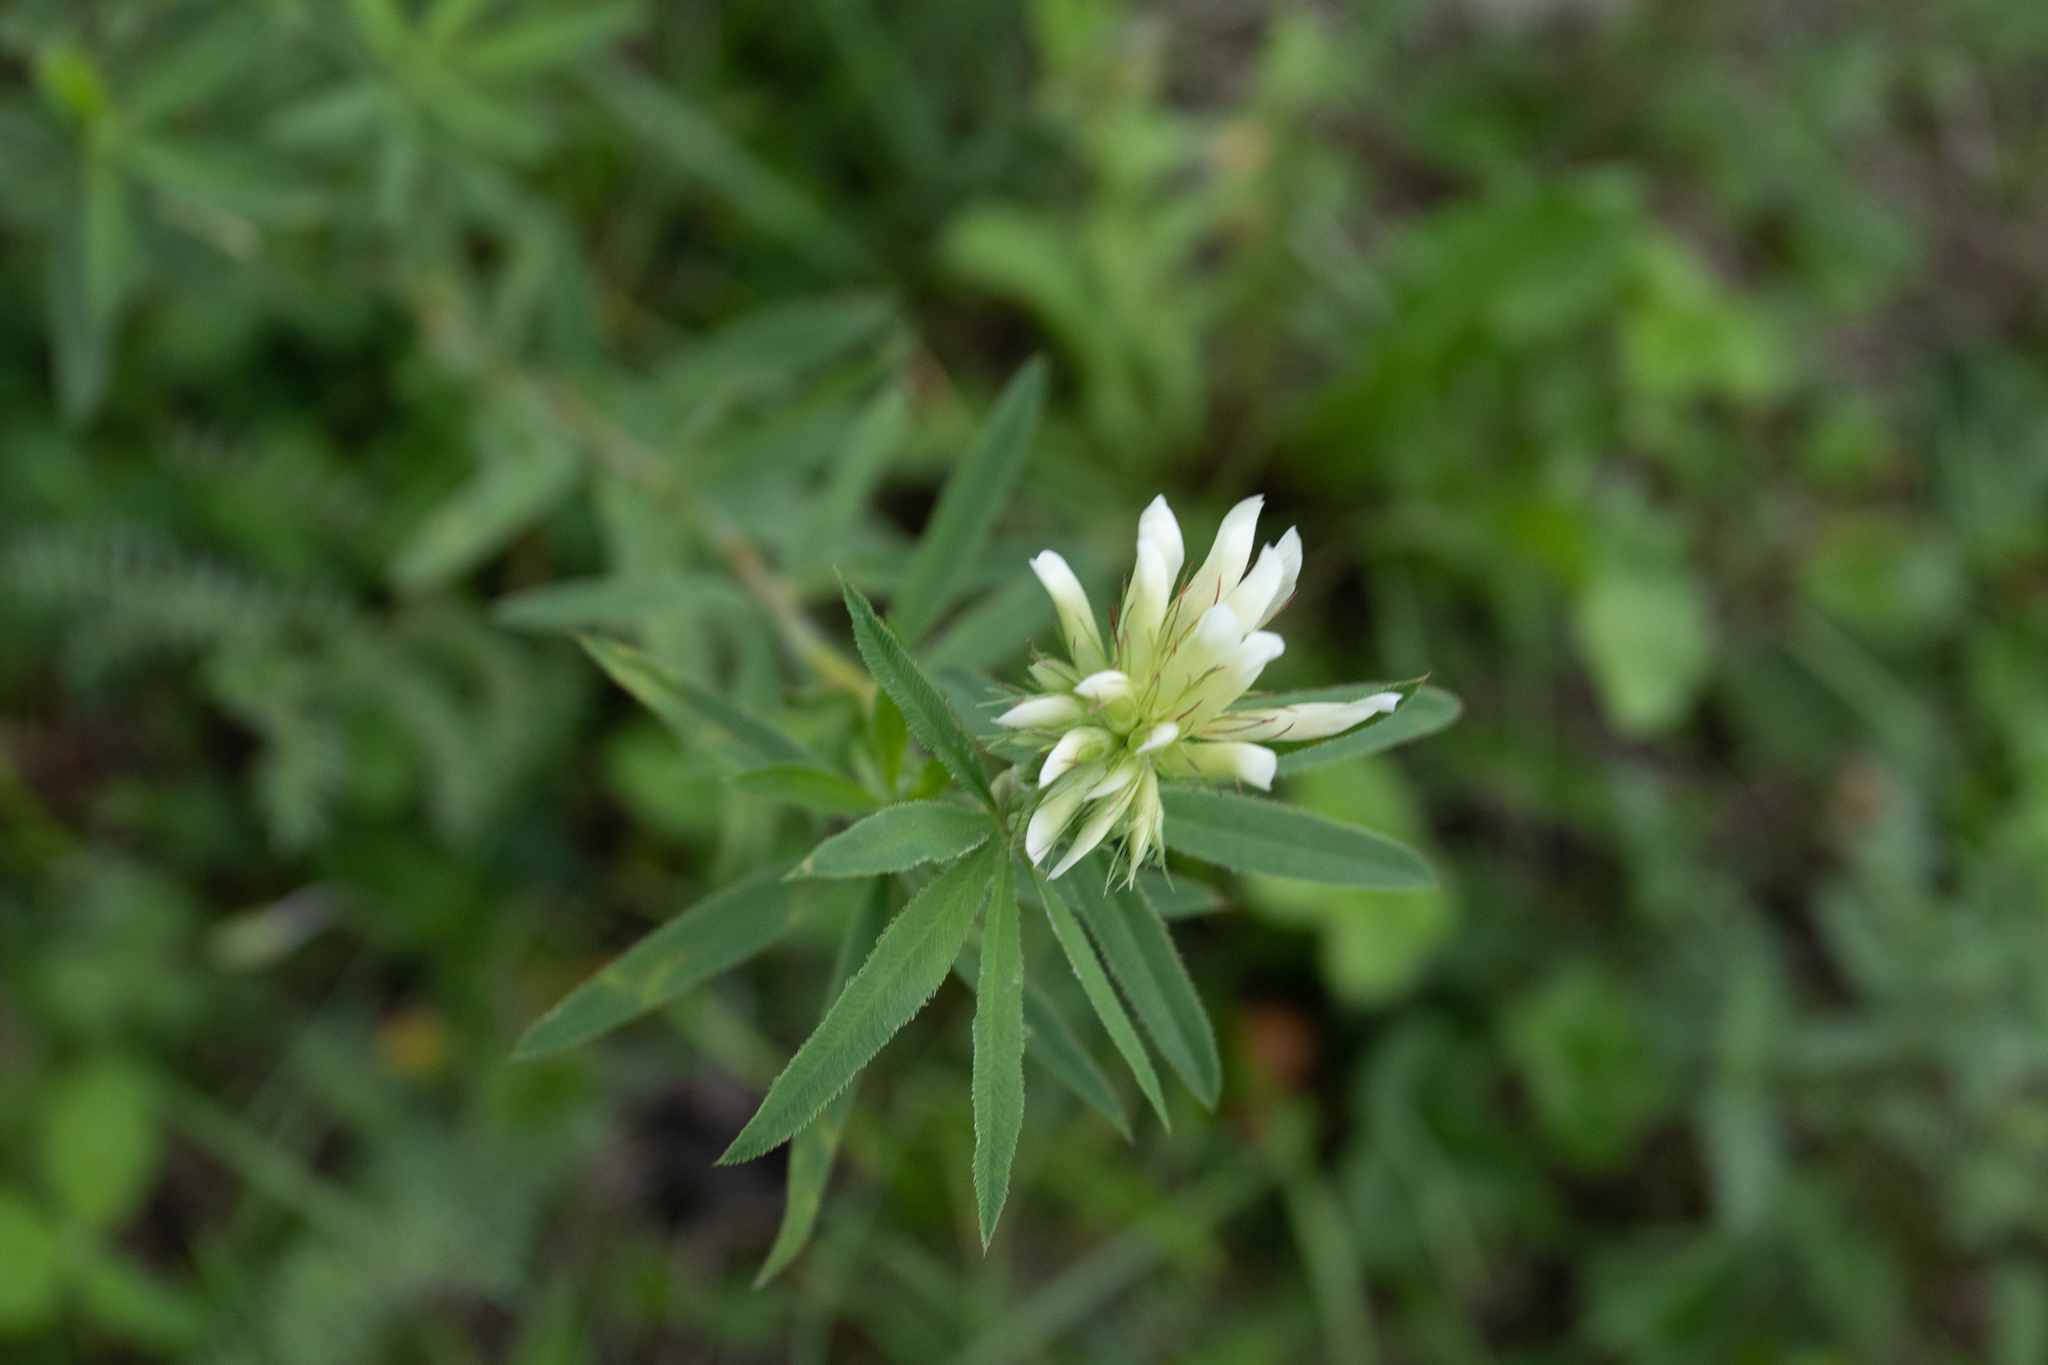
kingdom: Plantae
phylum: Tracheophyta
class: Magnoliopsida
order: Fabales
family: Fabaceae
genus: Trifolium
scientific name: Trifolium lupinaster
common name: Lupine clover
